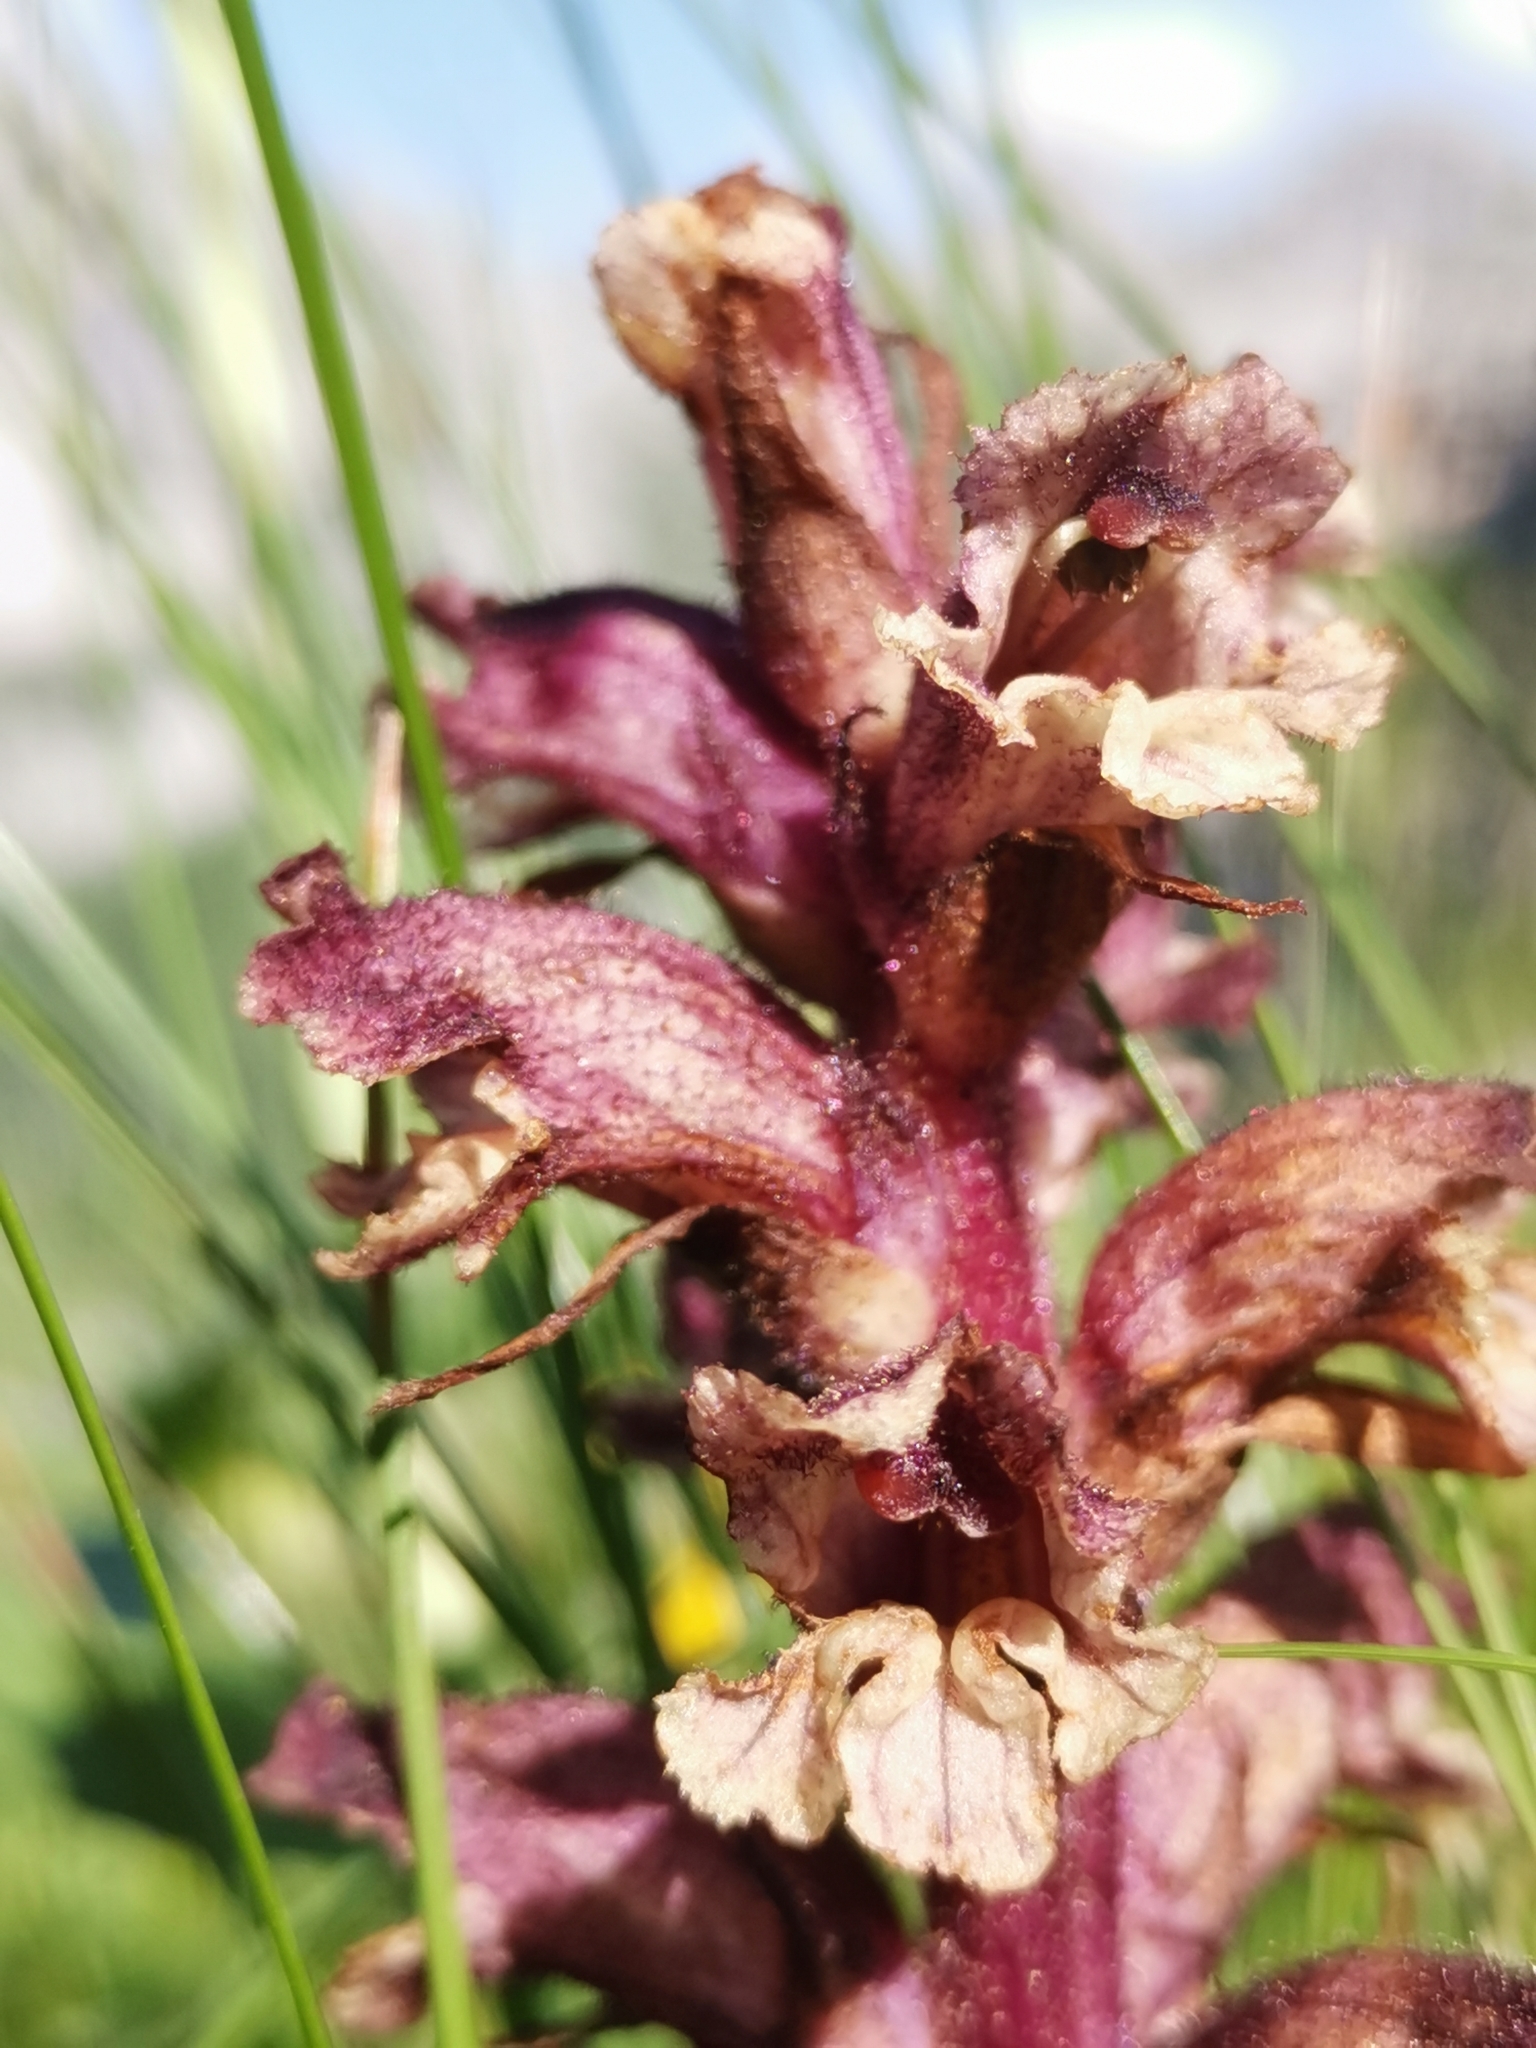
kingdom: Plantae
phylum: Tracheophyta
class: Magnoliopsida
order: Lamiales
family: Orobanchaceae
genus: Orobanche
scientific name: Orobanche pancicii
